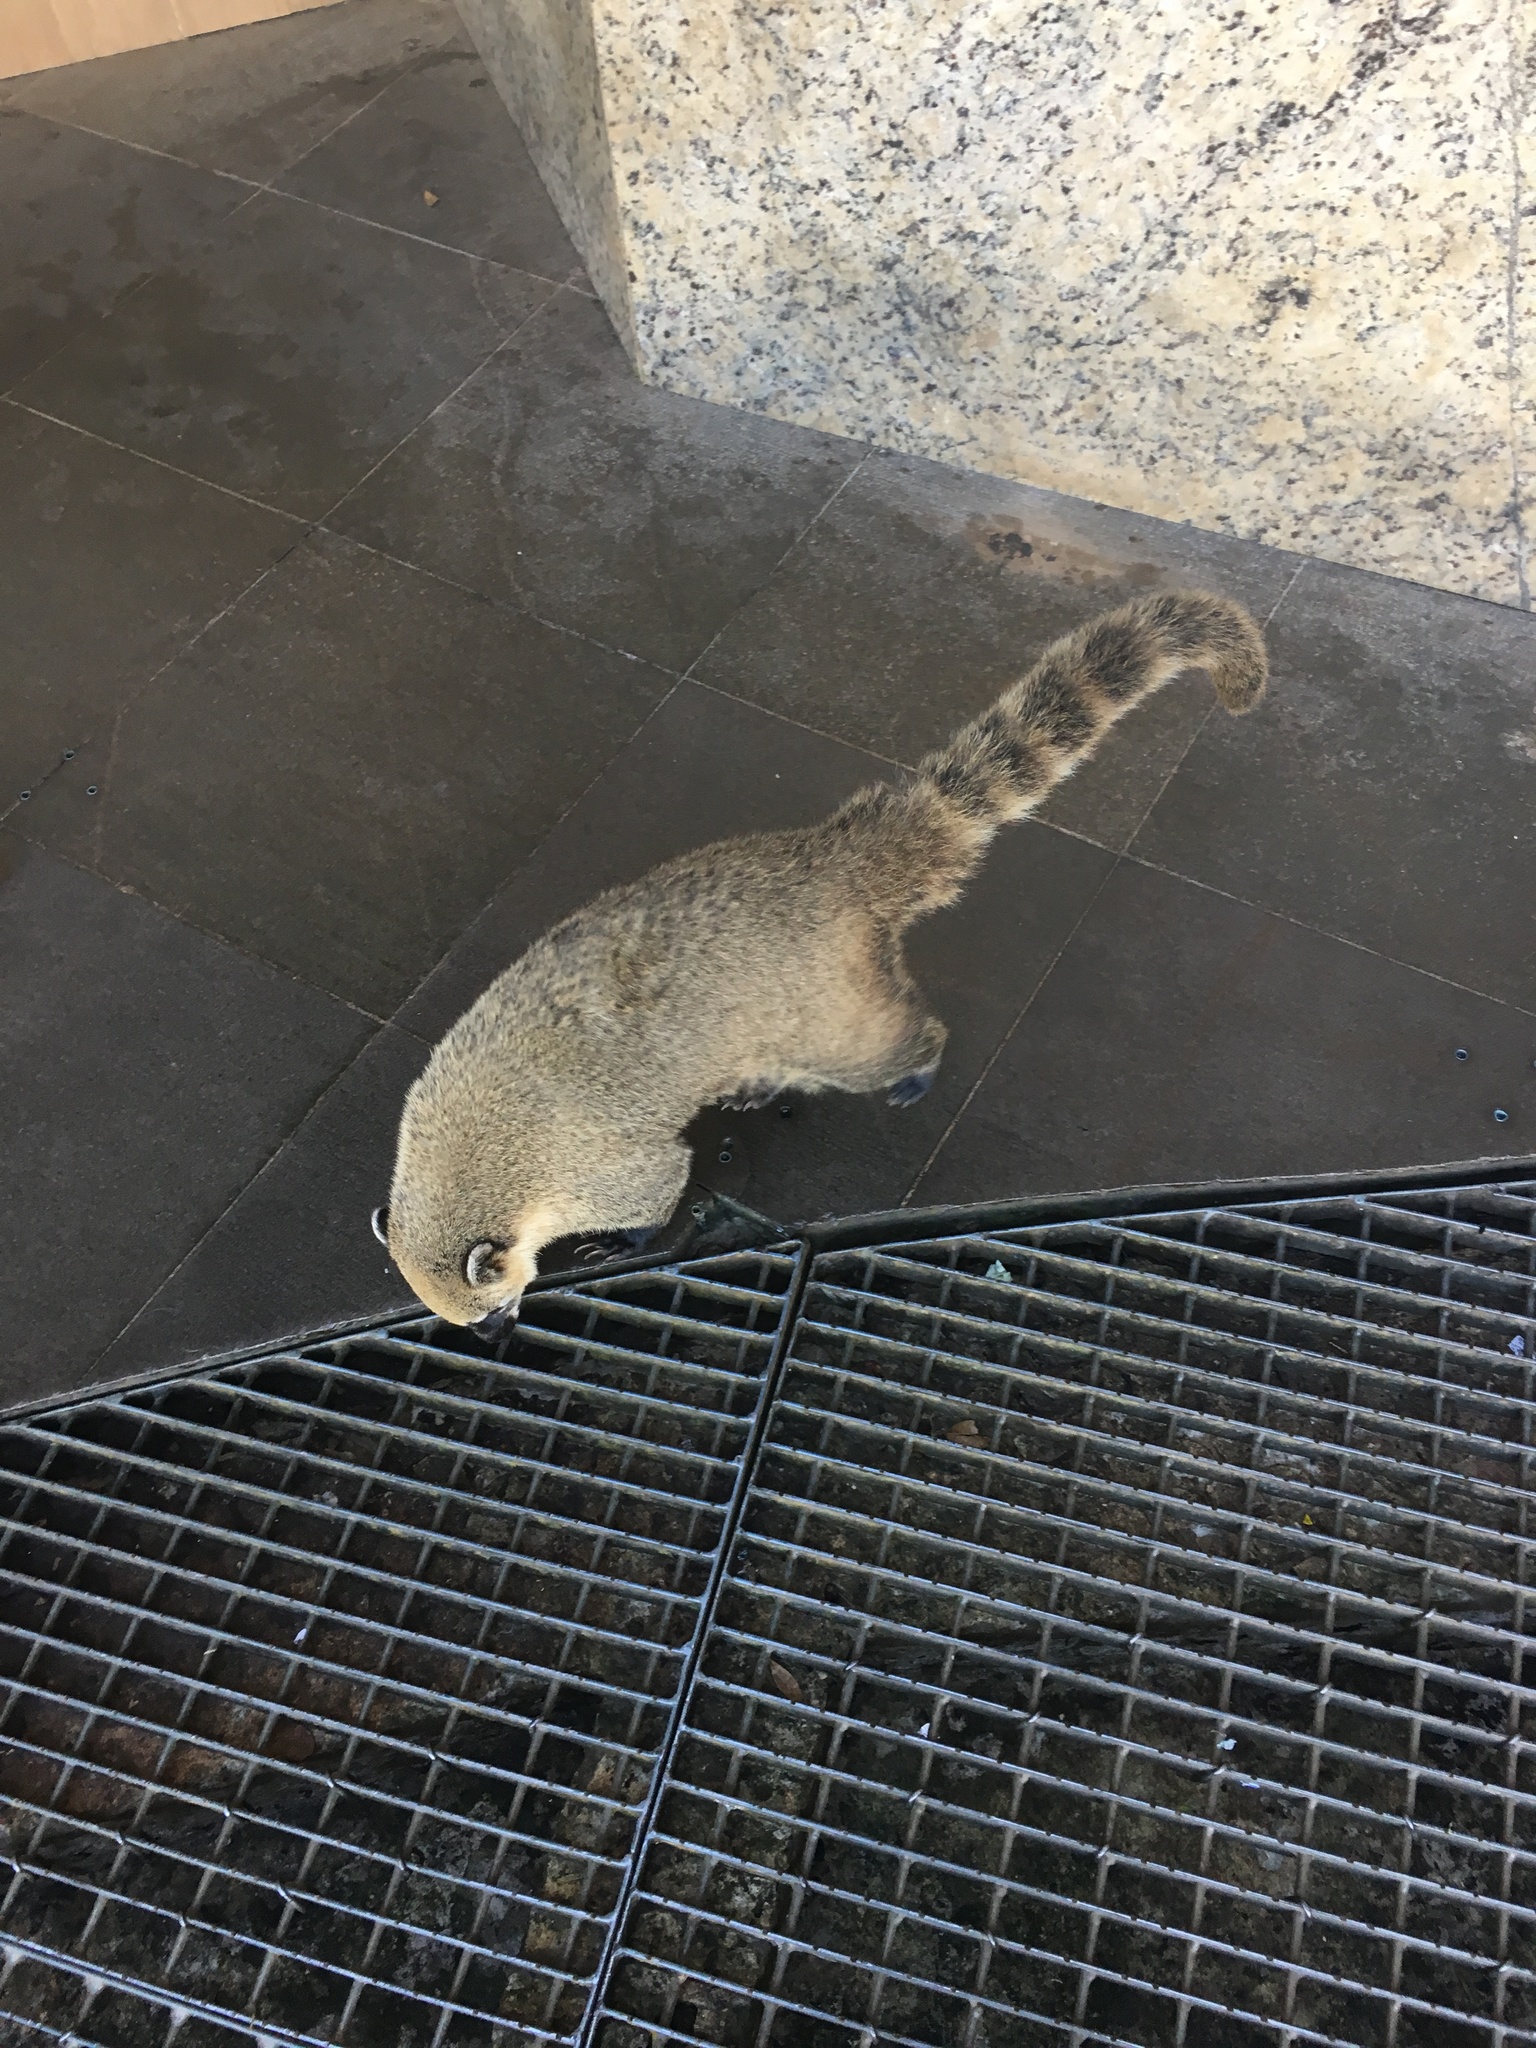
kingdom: Animalia
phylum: Chordata
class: Mammalia
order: Carnivora
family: Procyonidae
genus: Nasua
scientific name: Nasua nasua
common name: South american coati
